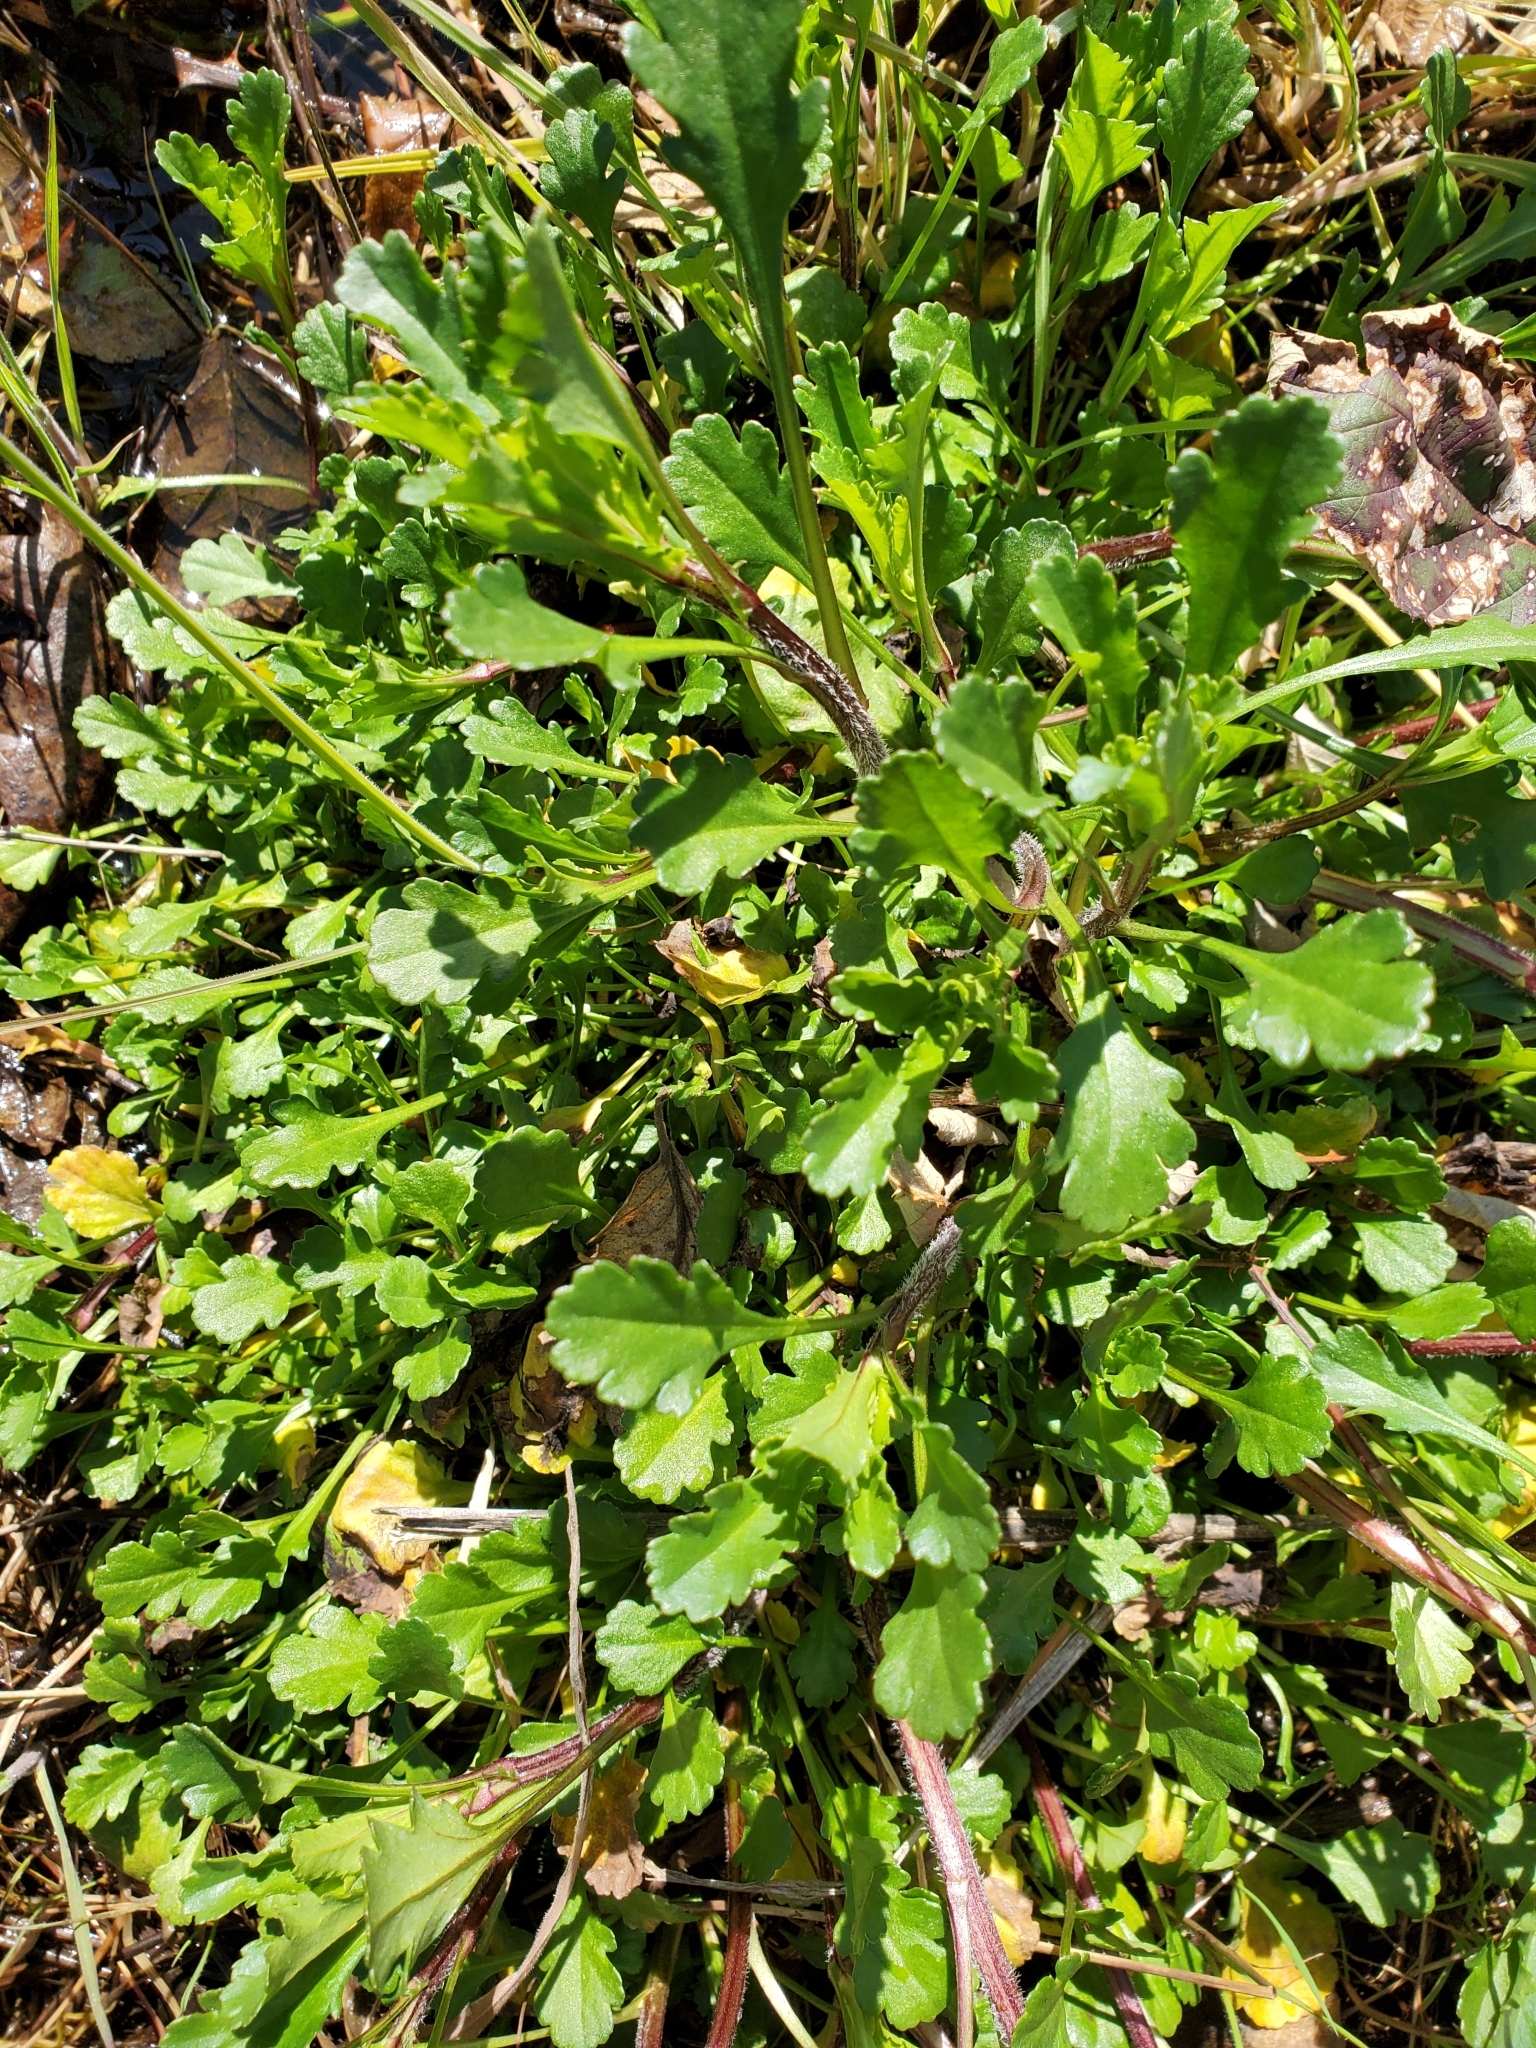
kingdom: Plantae
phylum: Tracheophyta
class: Magnoliopsida
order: Asterales
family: Asteraceae
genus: Leucanthemum
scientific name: Leucanthemum vulgare
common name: Oxeye daisy
